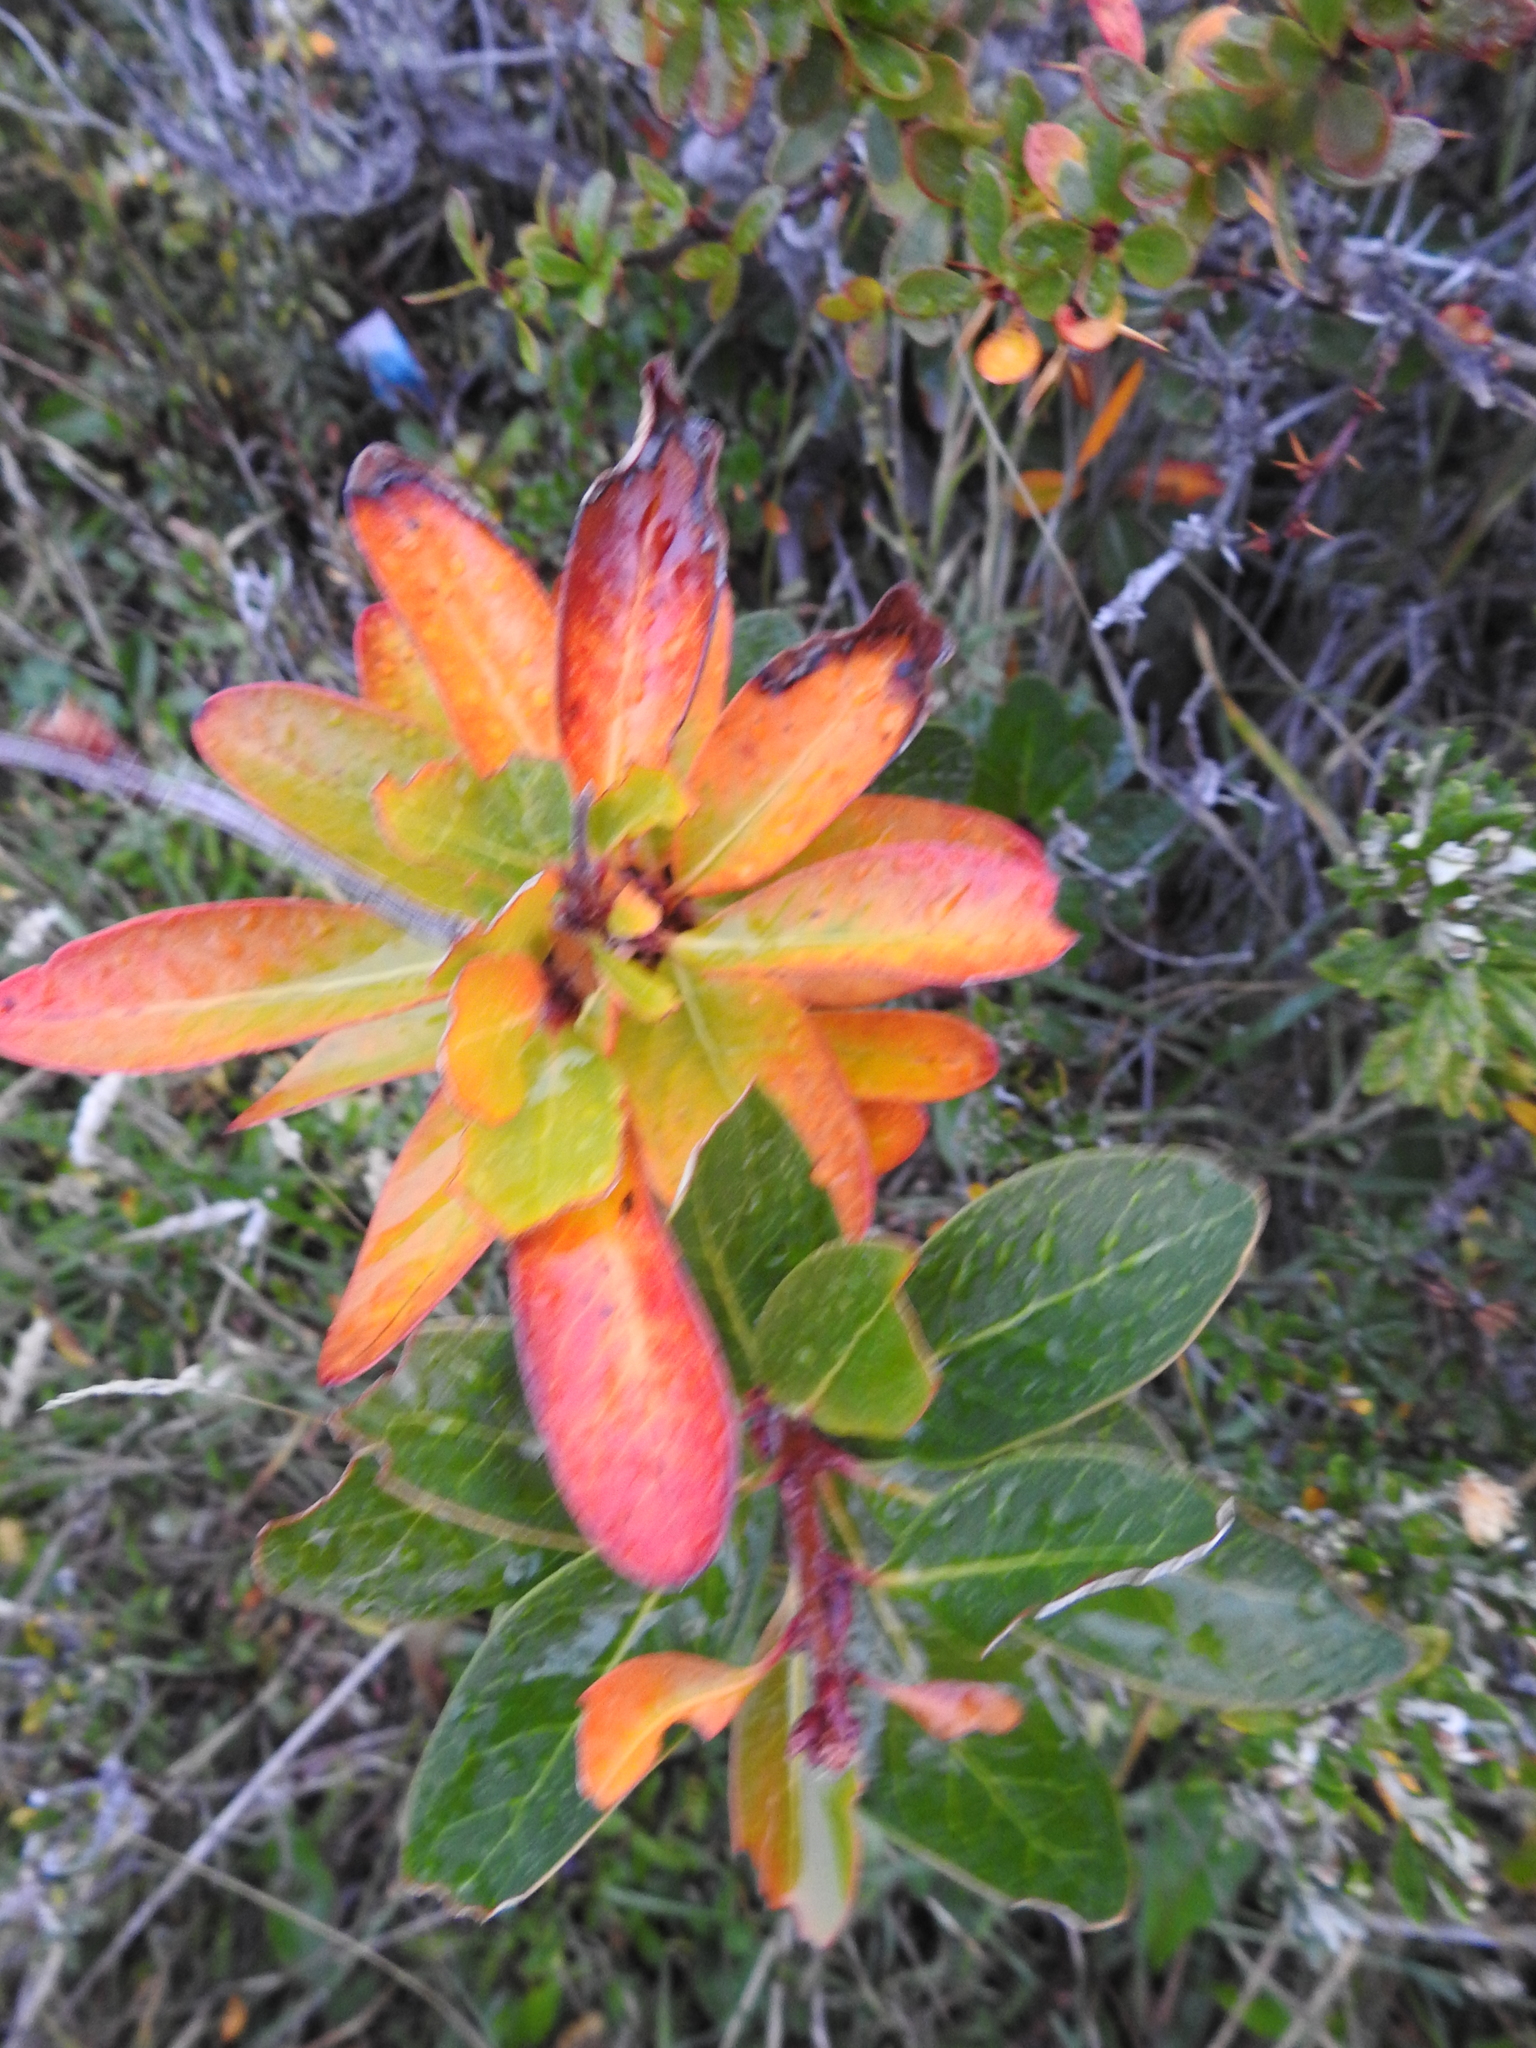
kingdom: Plantae
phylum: Tracheophyta
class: Magnoliopsida
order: Proteales
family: Proteaceae
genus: Embothrium
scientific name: Embothrium coccineum
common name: Chilean firebush
